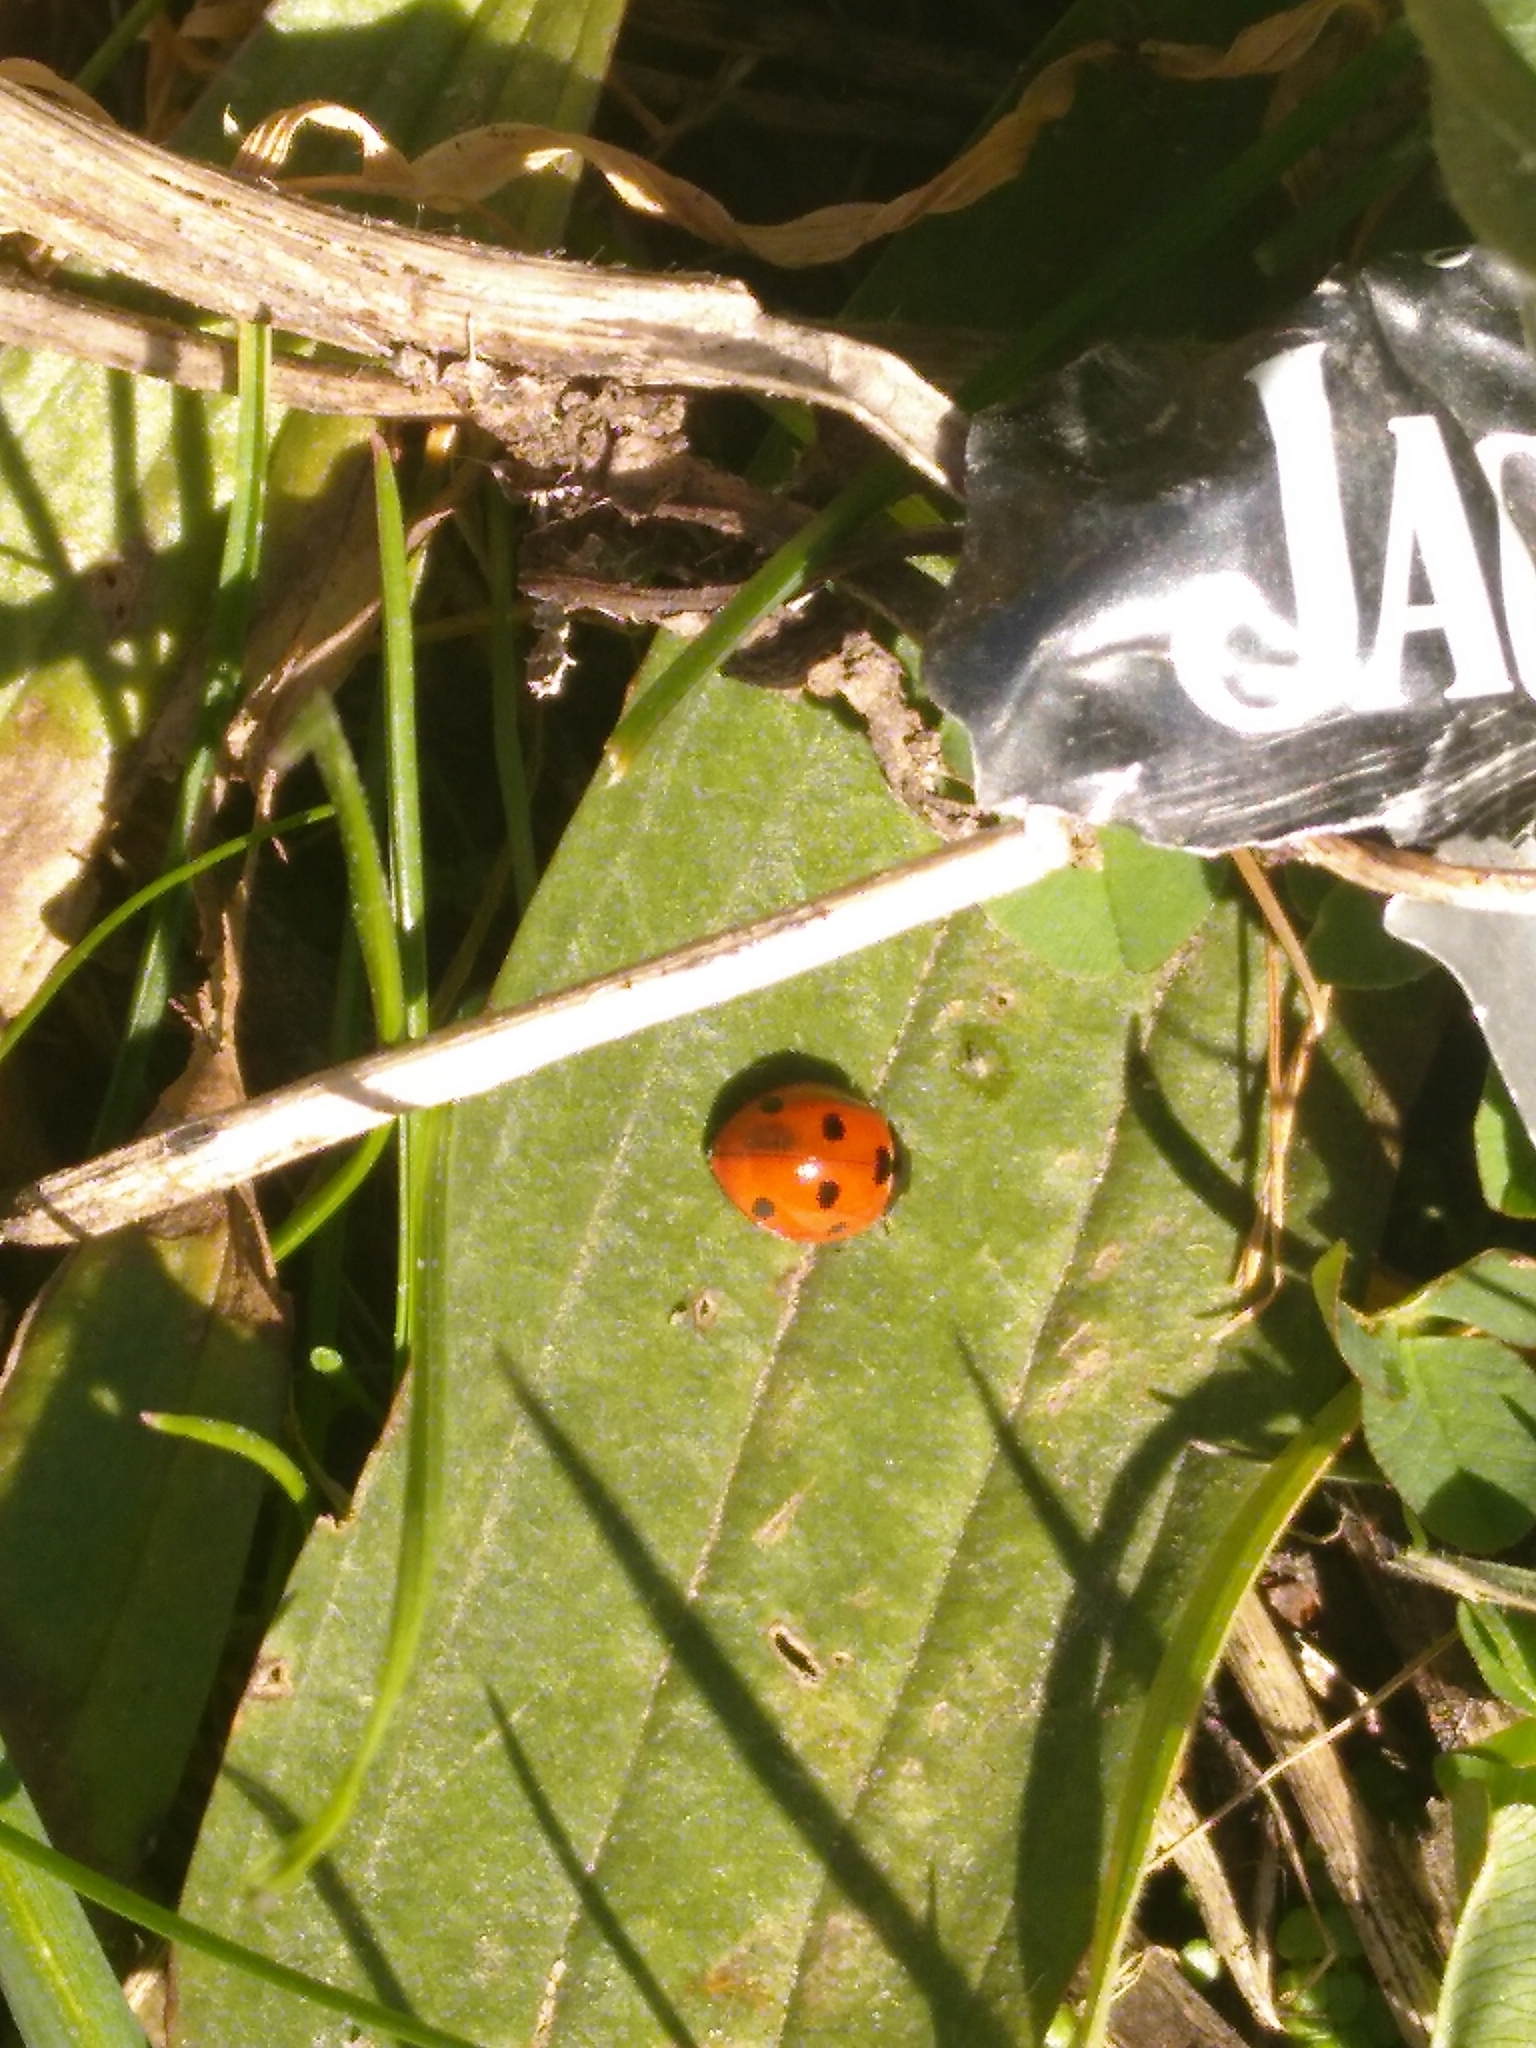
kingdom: Animalia
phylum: Arthropoda
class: Insecta
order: Coleoptera
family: Coccinellidae
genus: Coccinella
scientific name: Coccinella septempunctata
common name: Sevenspotted lady beetle
